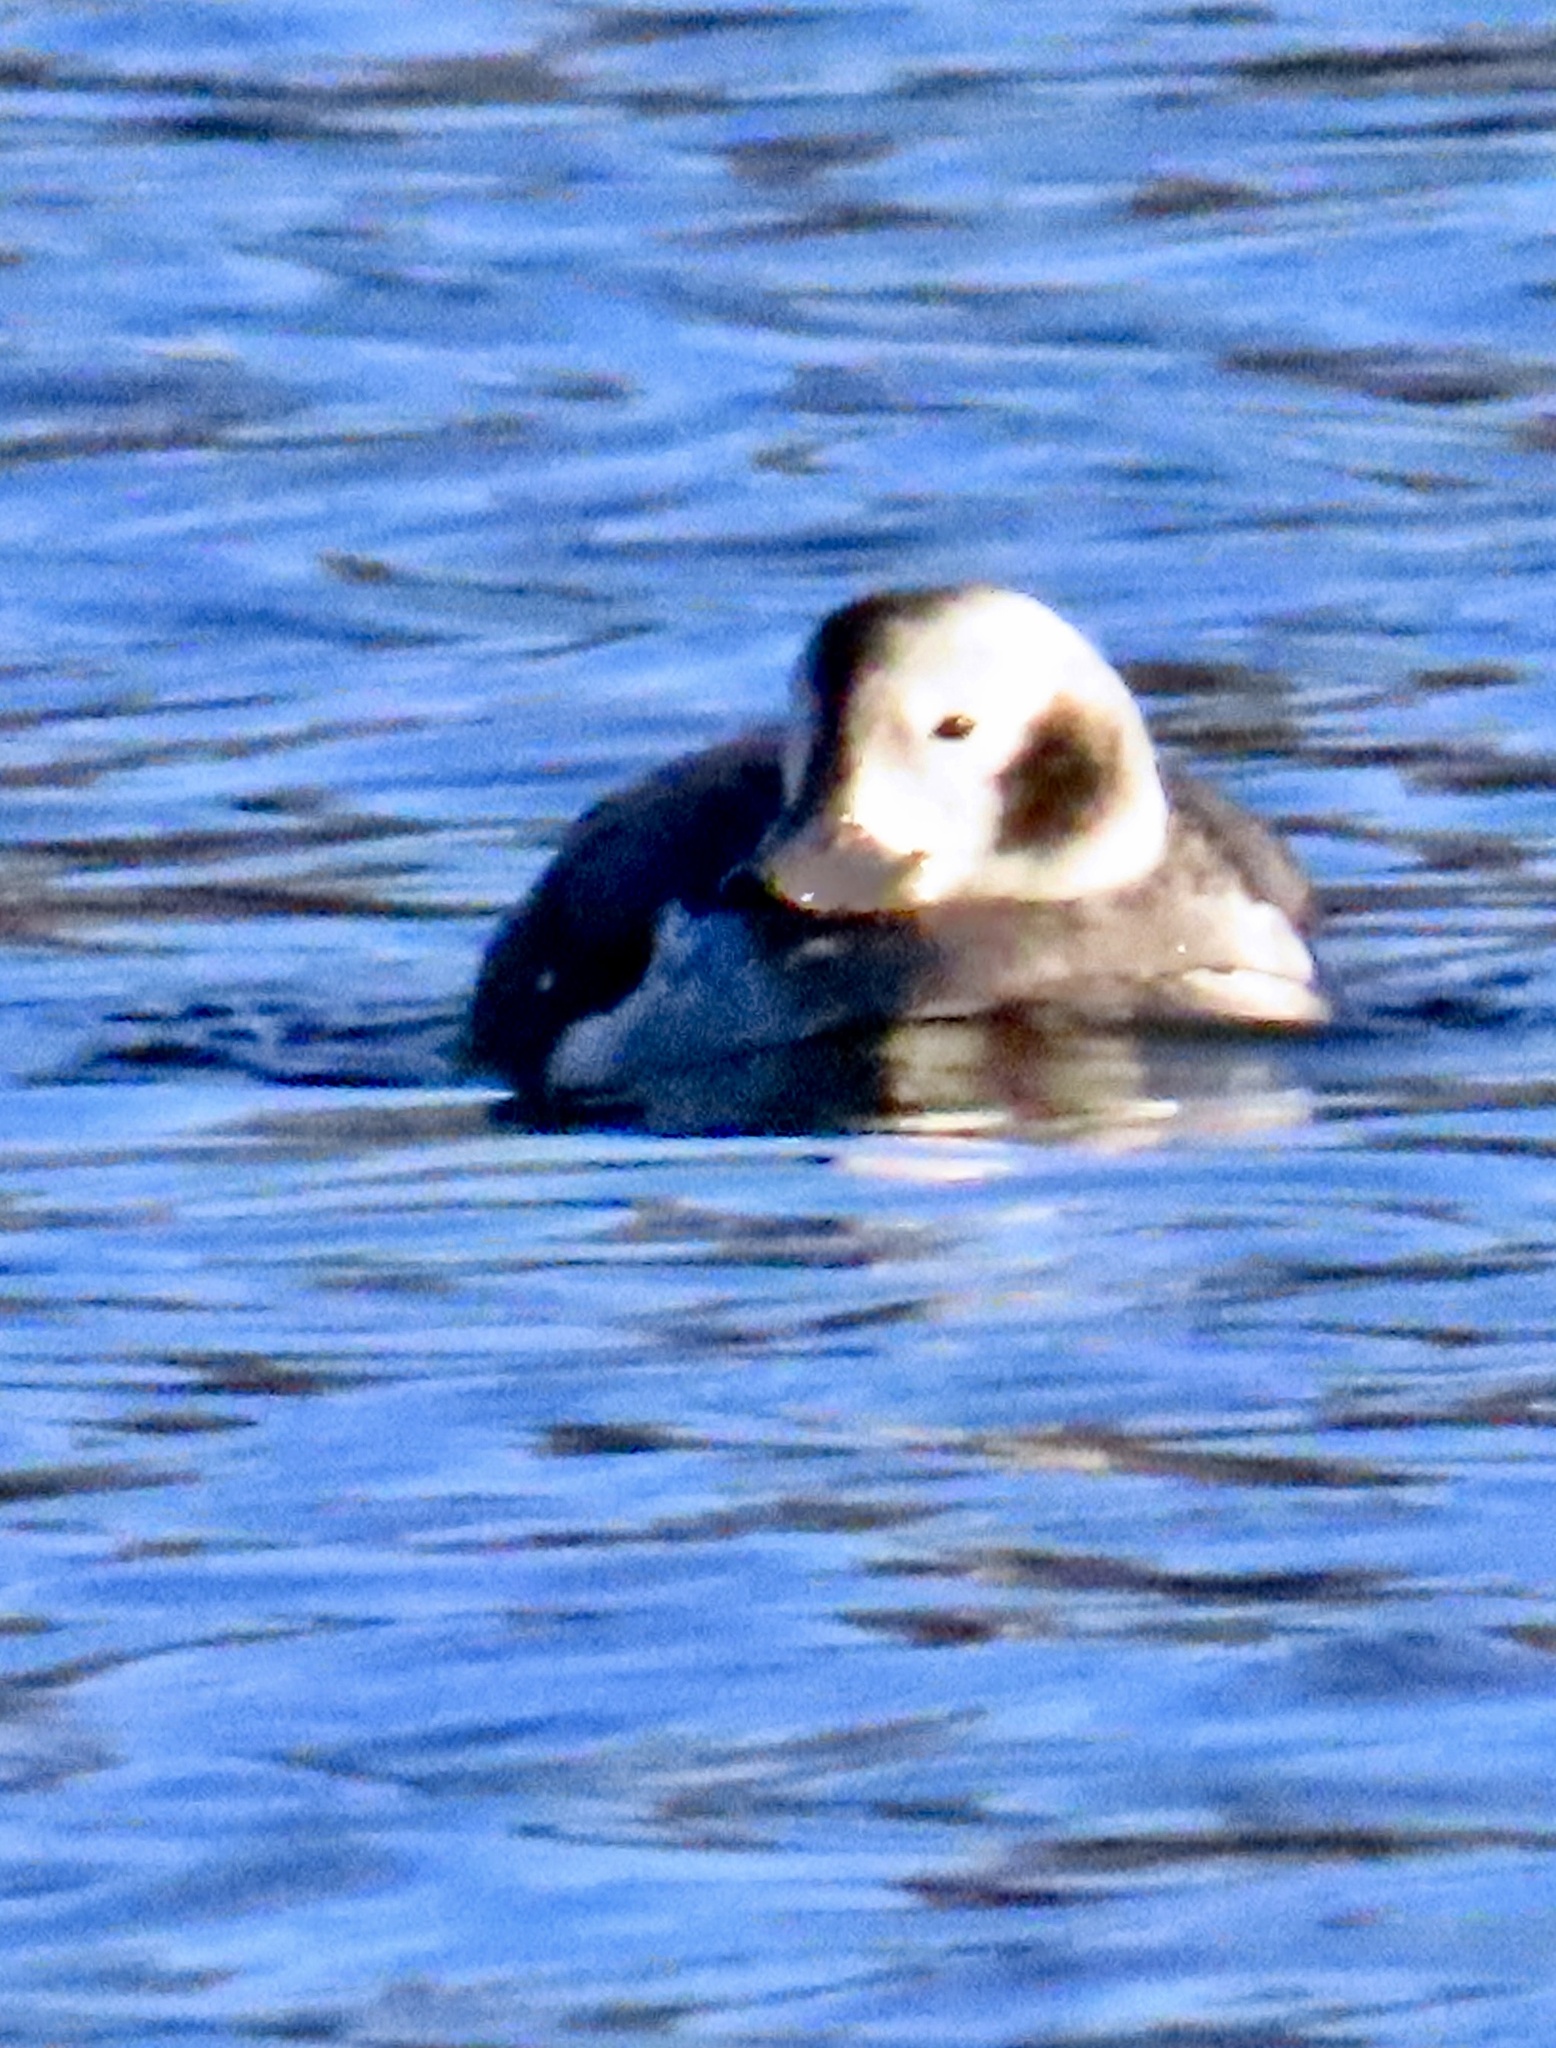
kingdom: Animalia
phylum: Chordata
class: Aves
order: Anseriformes
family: Anatidae
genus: Clangula
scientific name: Clangula hyemalis
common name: Long-tailed duck
